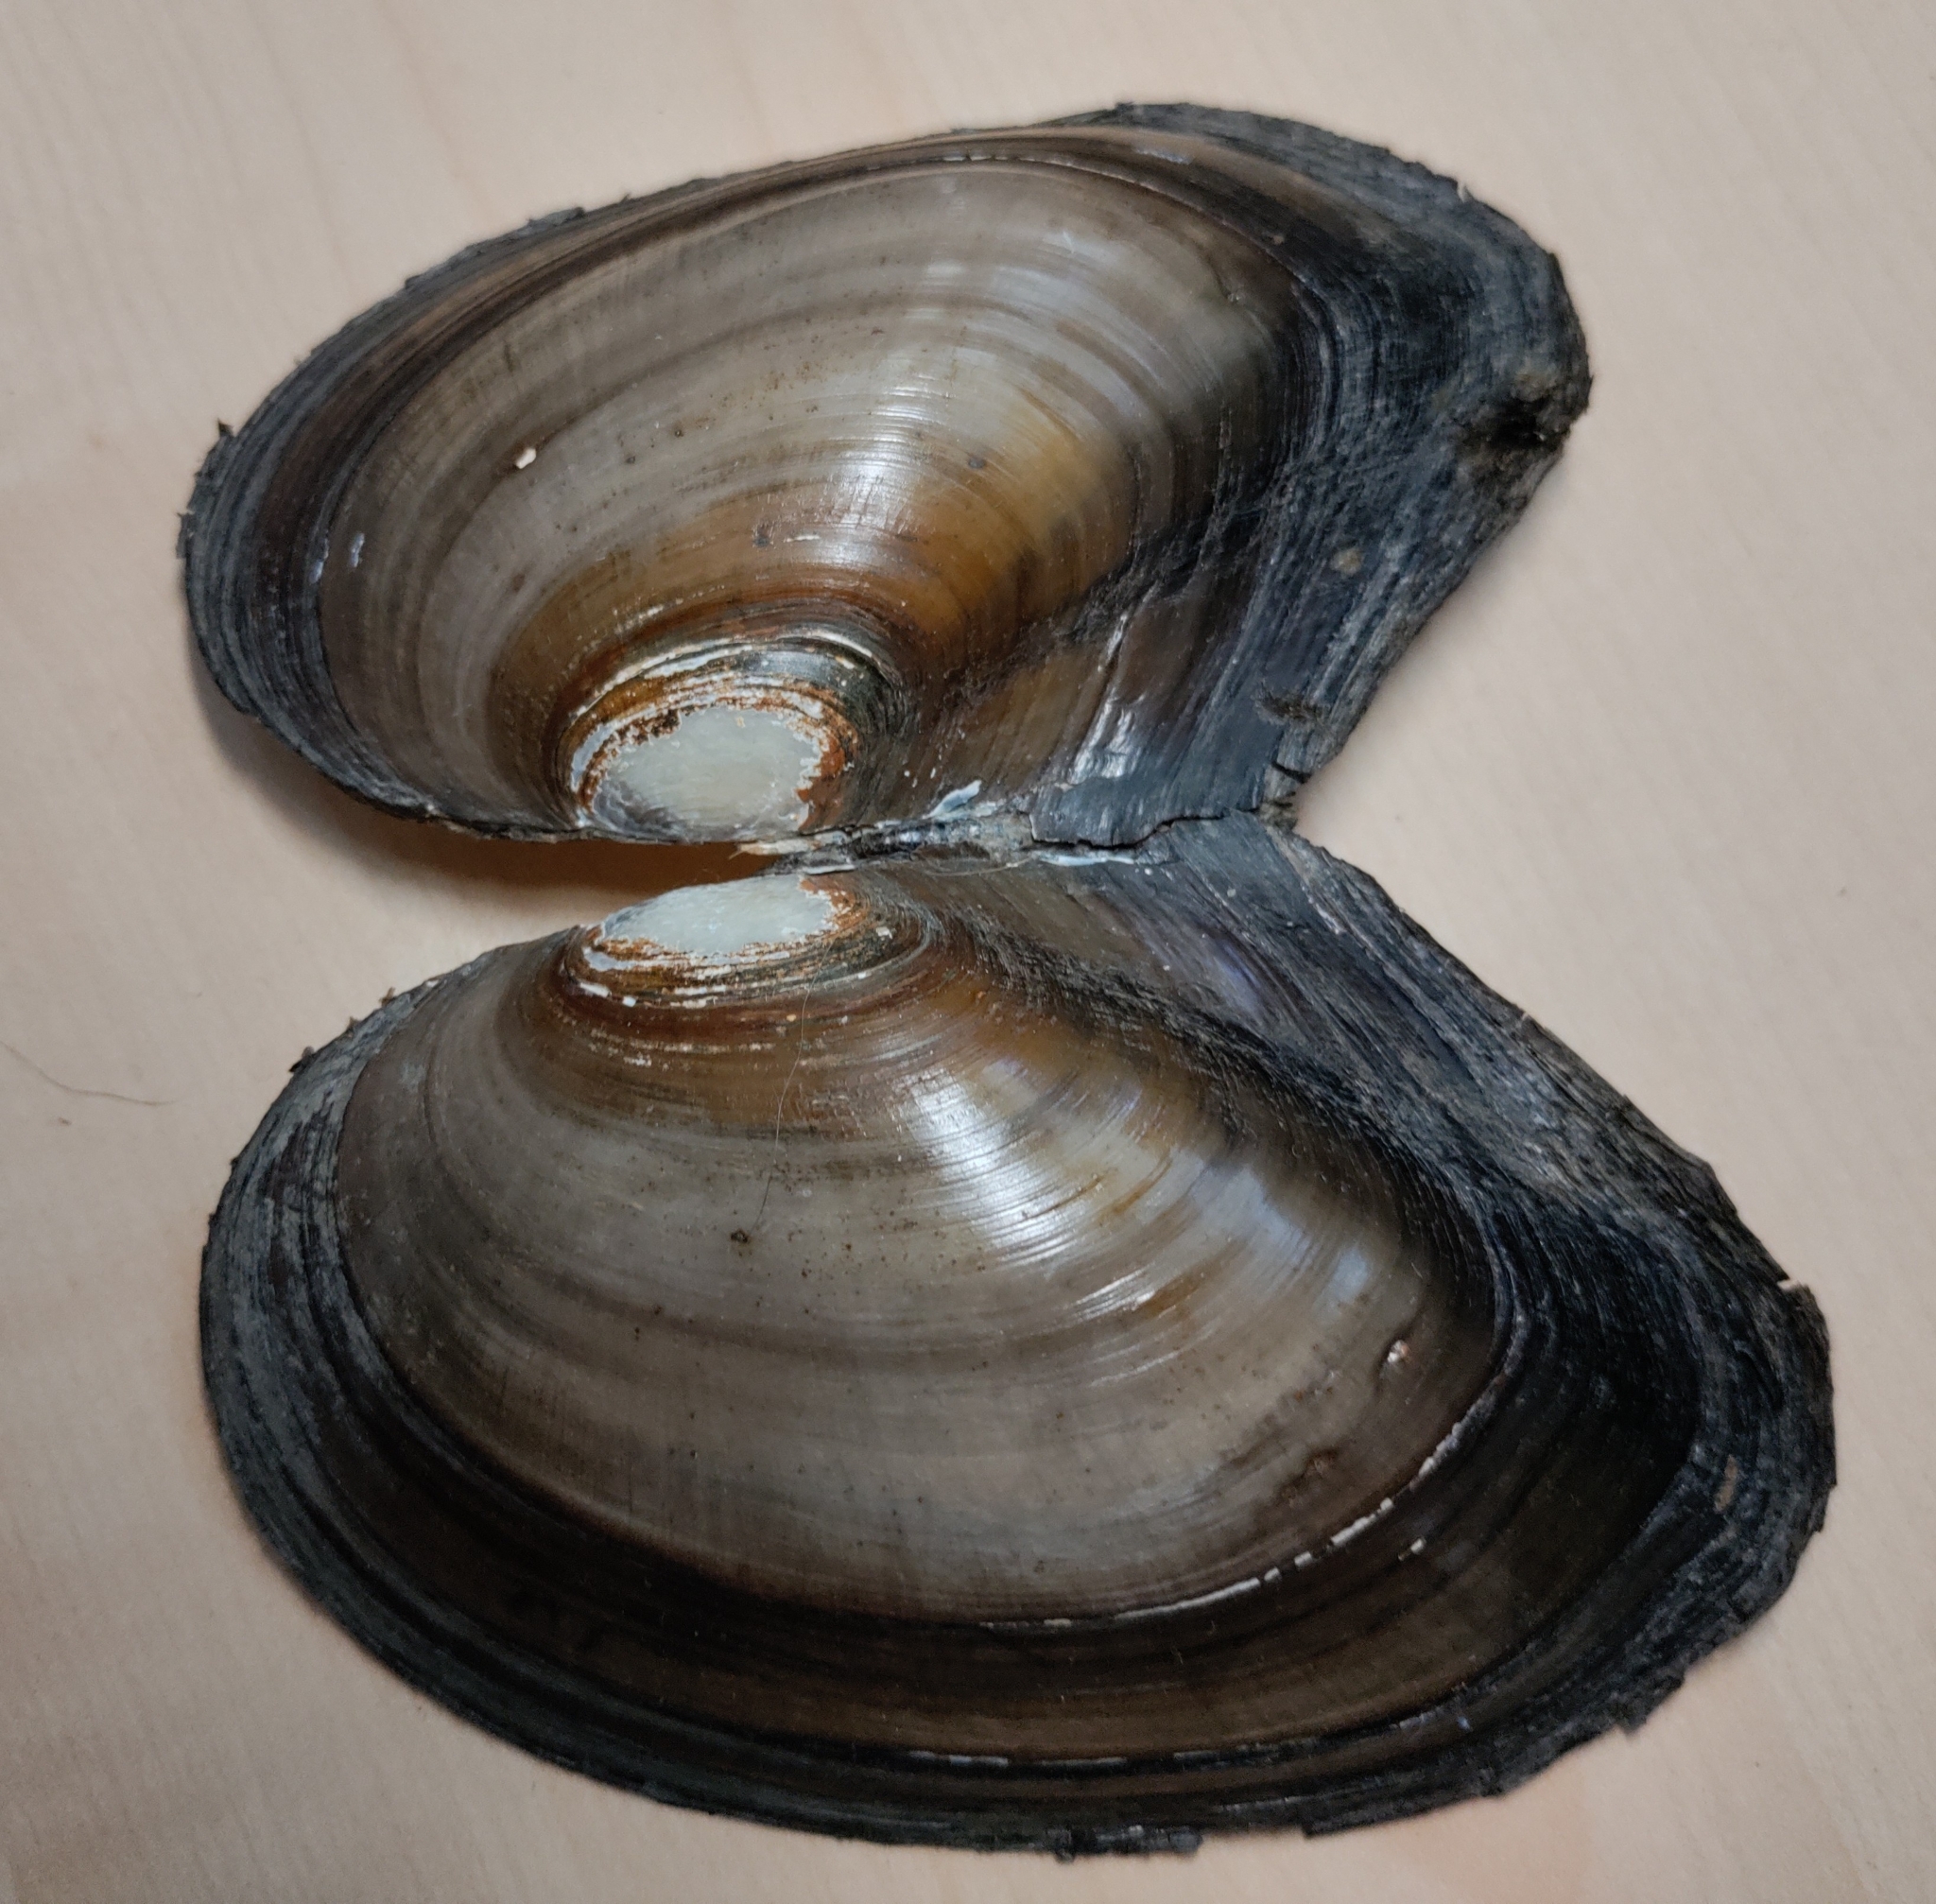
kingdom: Animalia
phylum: Mollusca
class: Bivalvia
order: Unionida
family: Unionidae
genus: Anodonta
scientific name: Anodonta anatina
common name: Duck mussel
